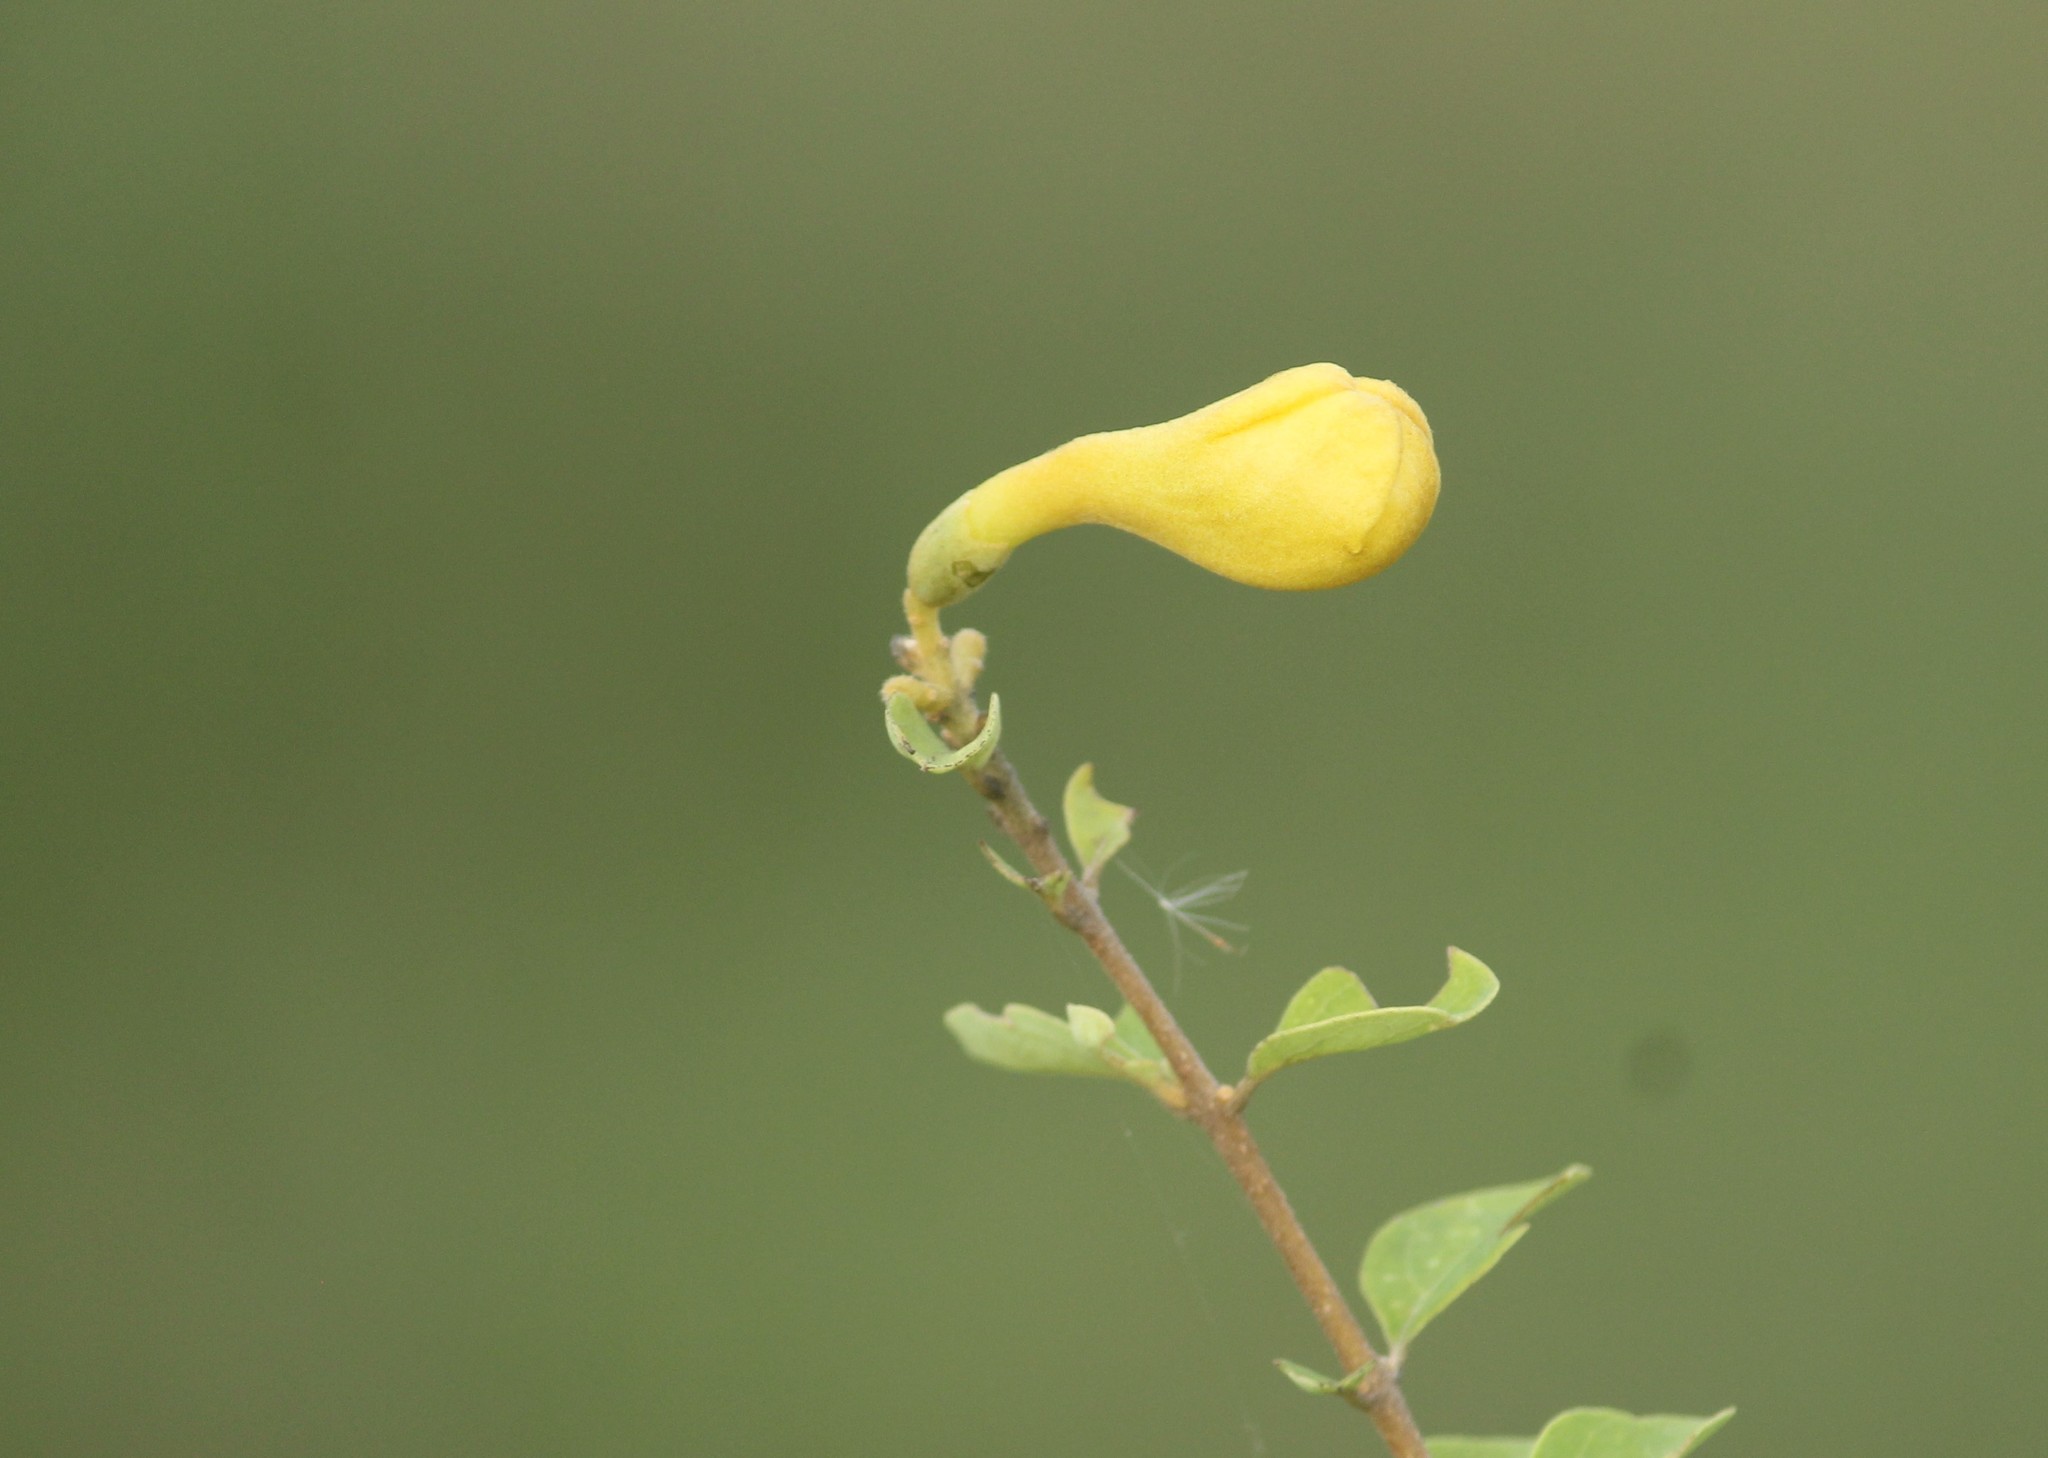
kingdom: Plantae
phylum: Tracheophyta
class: Magnoliopsida
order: Lamiales
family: Lamiaceae
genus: Gmelina
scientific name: Gmelina asiatica
